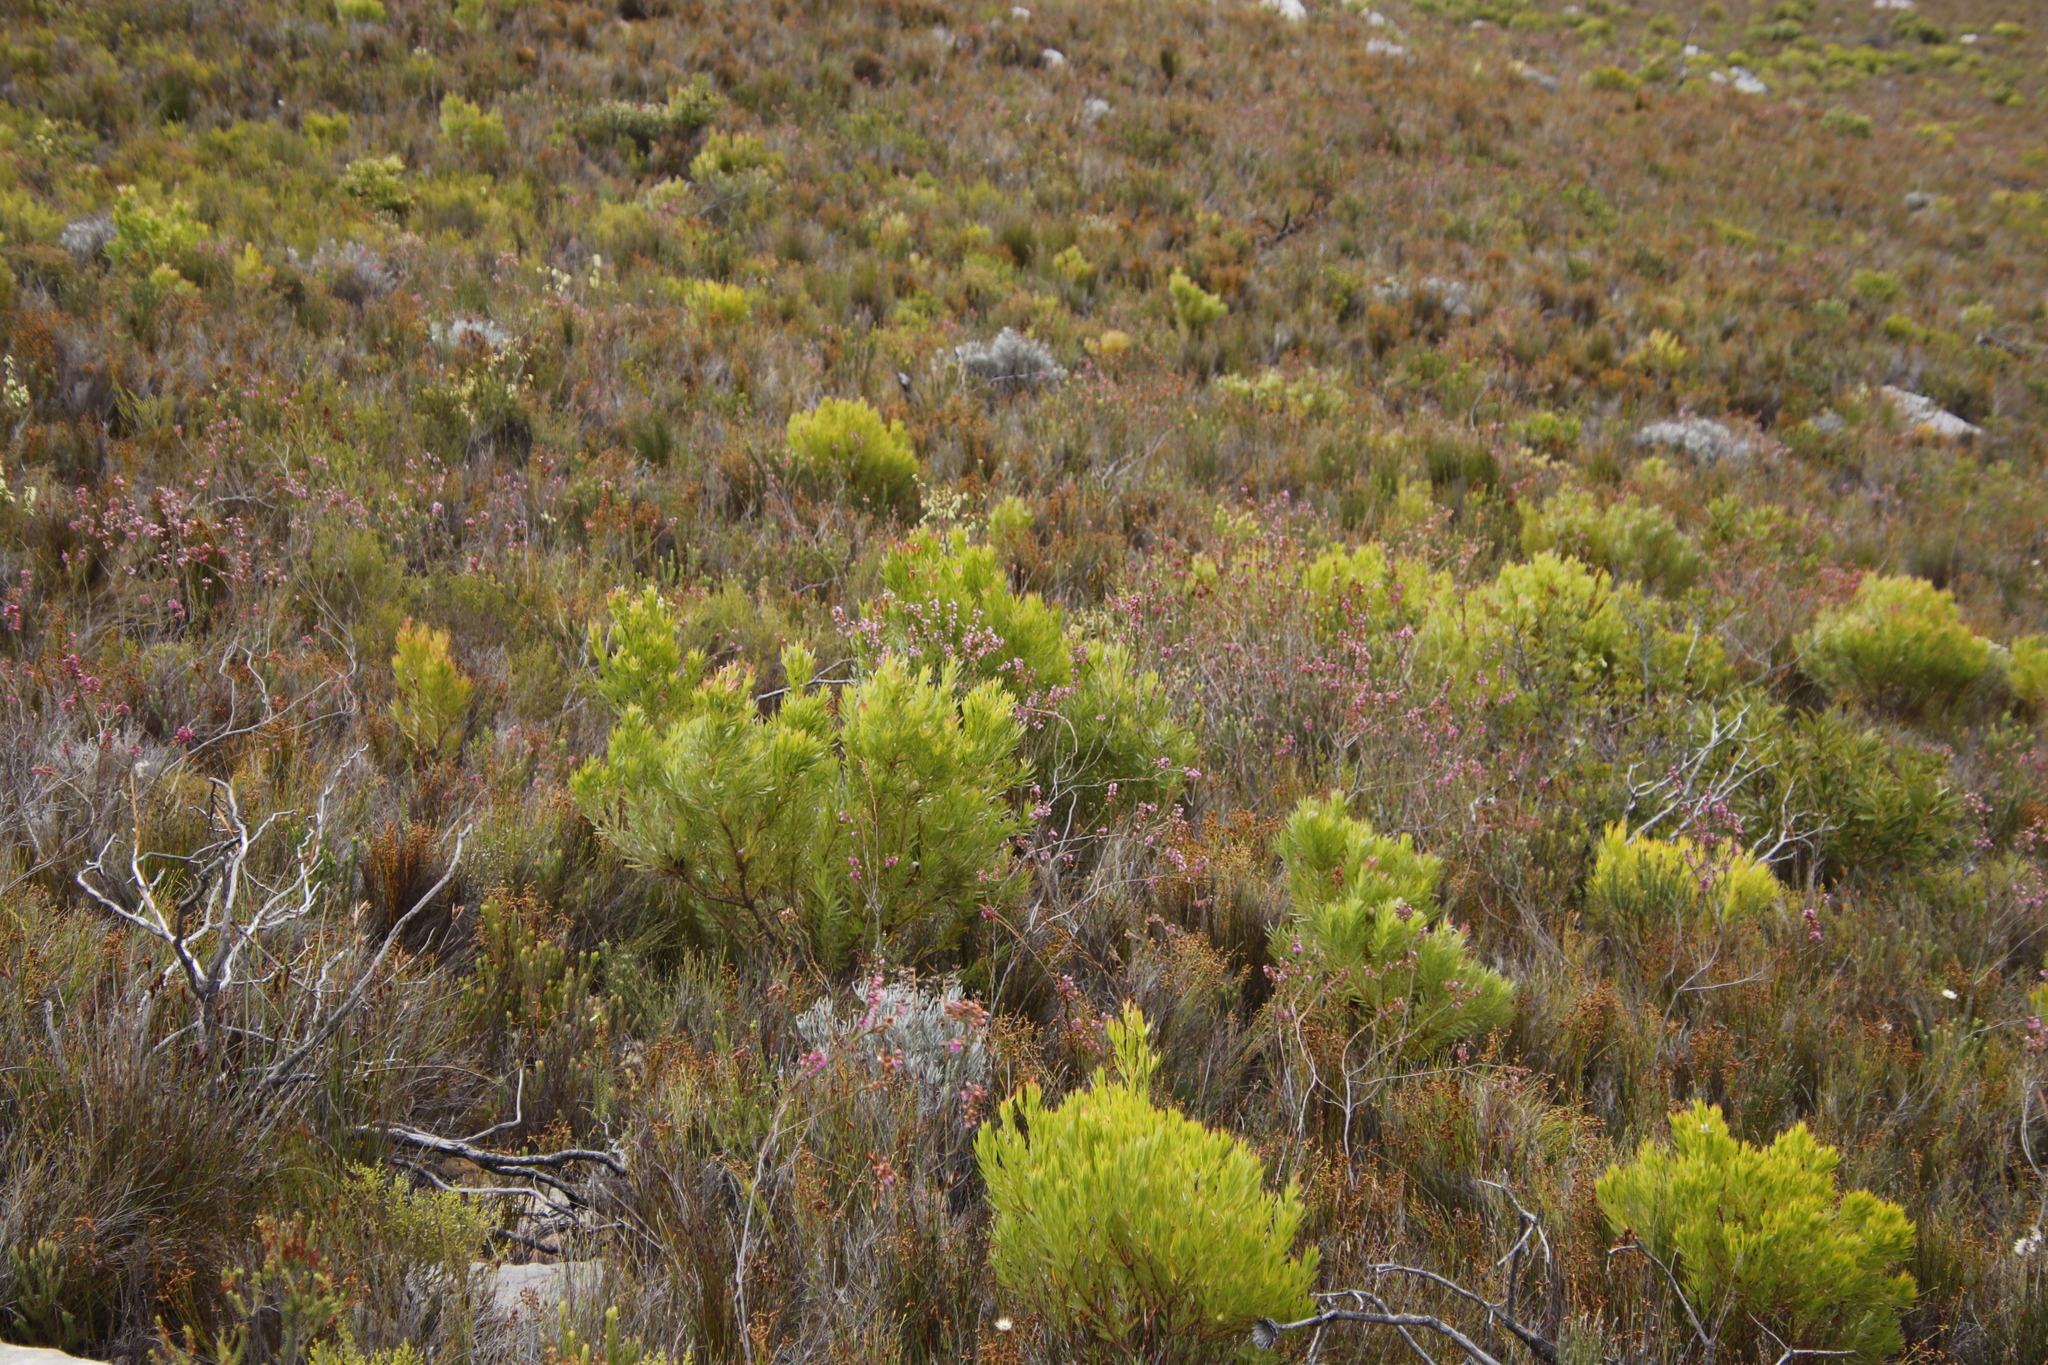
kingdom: Plantae
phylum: Tracheophyta
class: Magnoliopsida
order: Proteales
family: Proteaceae
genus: Leucadendron
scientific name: Leucadendron xanthoconus
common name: Sickle-leaf conebush
